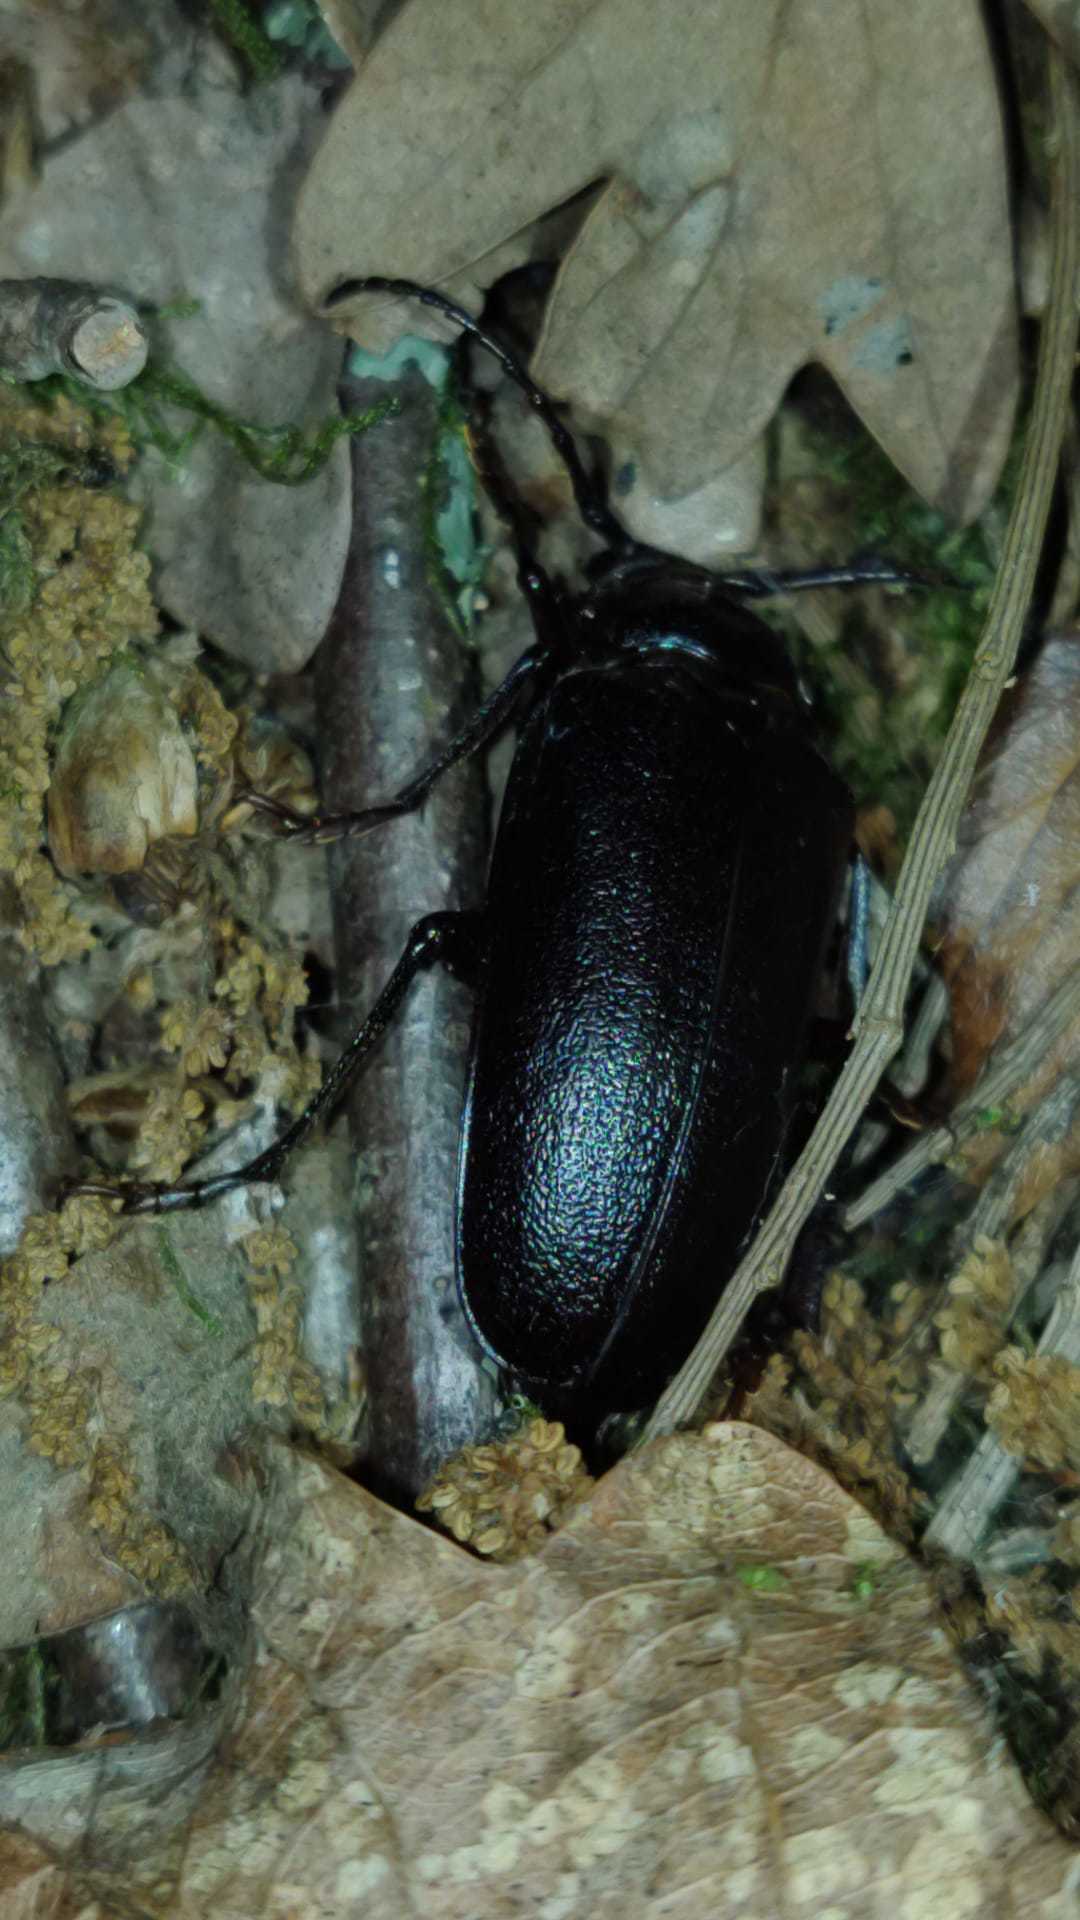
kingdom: Animalia
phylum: Arthropoda
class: Insecta
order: Coleoptera
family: Cerambycidae
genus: Prionus
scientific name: Prionus coriarius
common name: Tanner beetle
